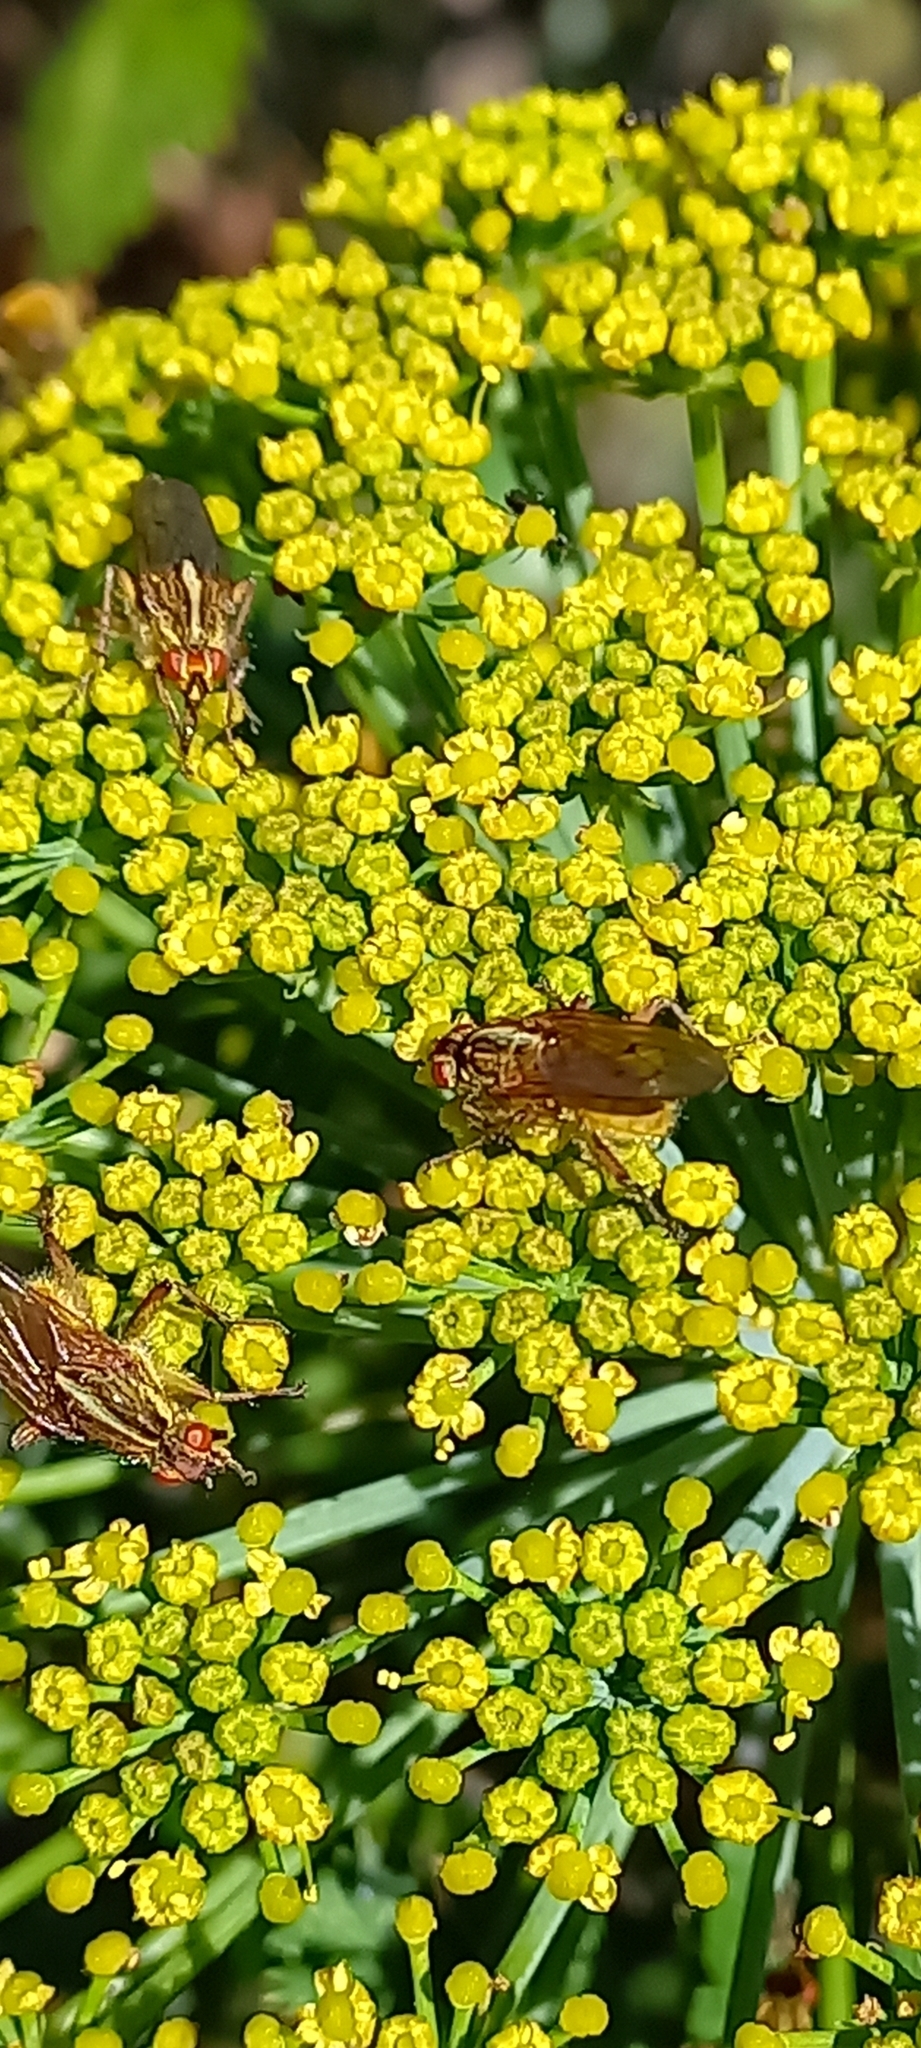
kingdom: Animalia
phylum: Arthropoda
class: Insecta
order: Diptera
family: Scathophagidae
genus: Scathophaga
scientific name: Scathophaga soror
